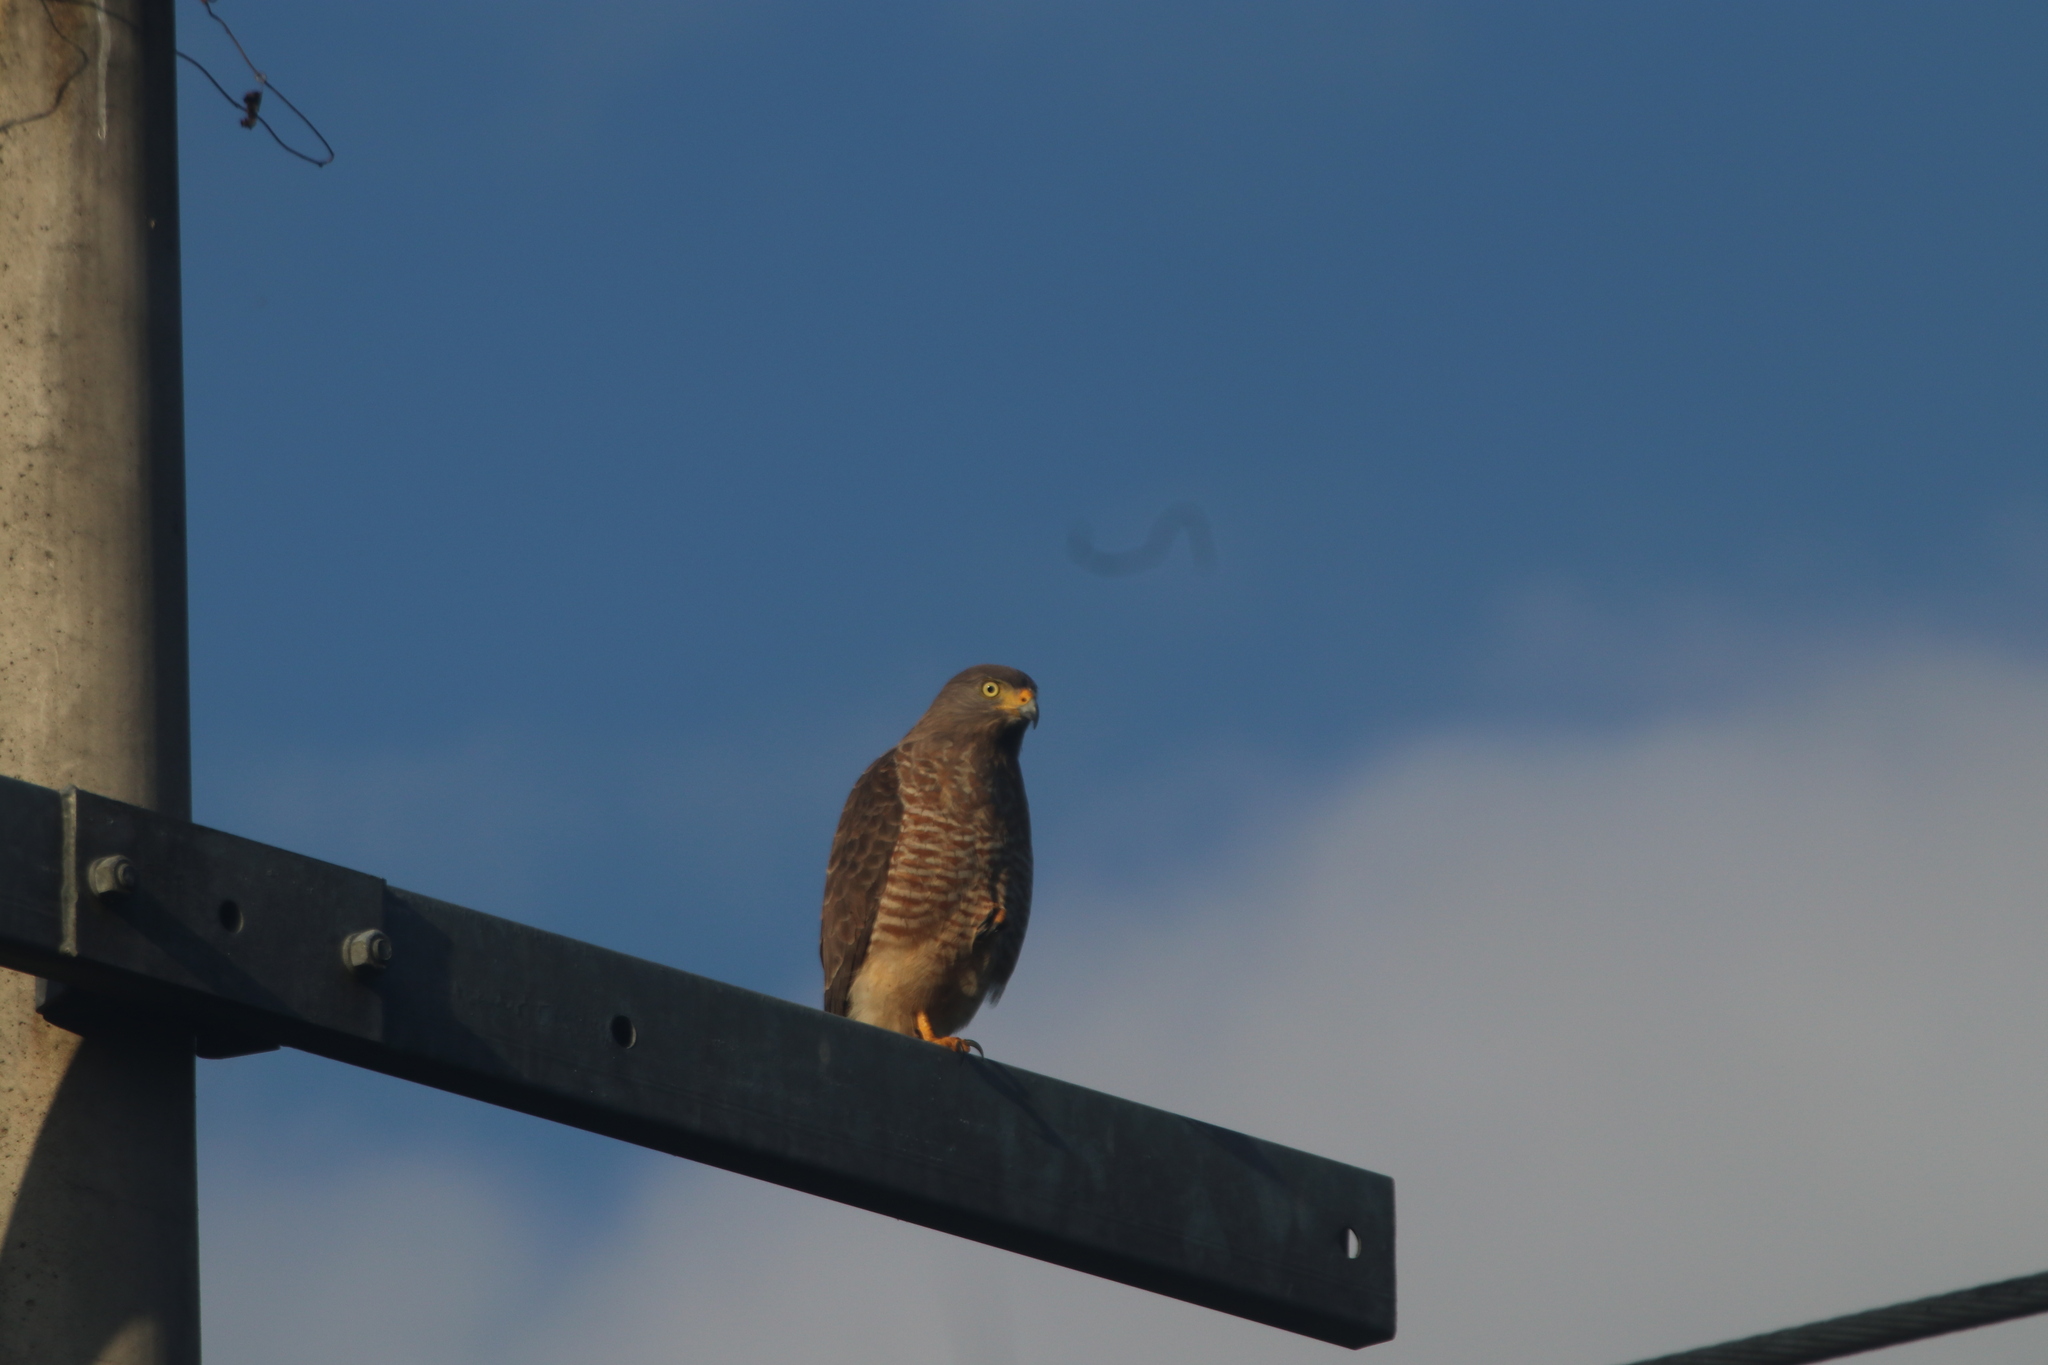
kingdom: Animalia
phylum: Chordata
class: Aves
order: Accipitriformes
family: Accipitridae
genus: Rupornis
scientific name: Rupornis magnirostris
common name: Roadside hawk
